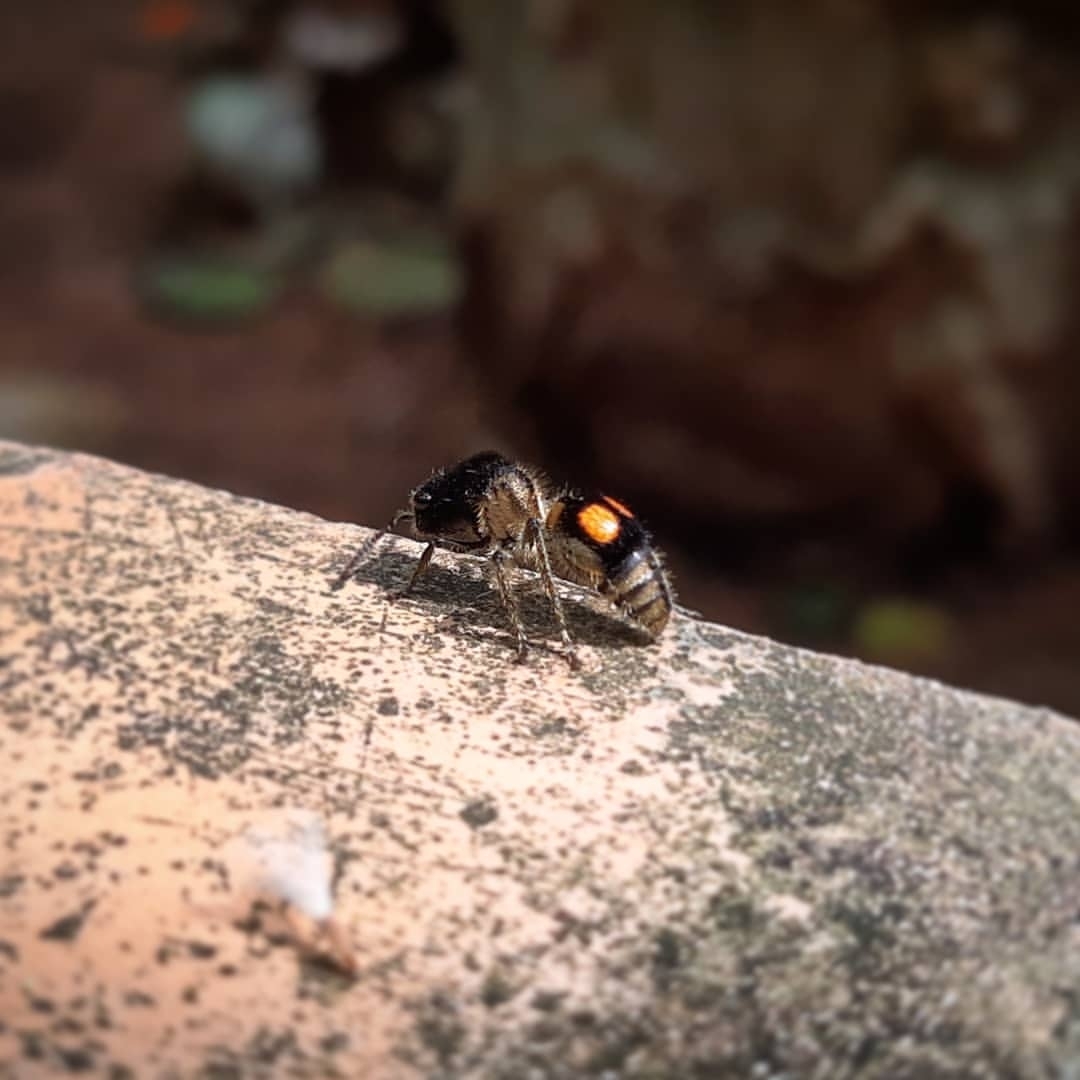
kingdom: Animalia
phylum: Arthropoda
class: Insecta
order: Hymenoptera
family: Mutillidae
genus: Hoplomutilla
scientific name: Hoplomutilla
